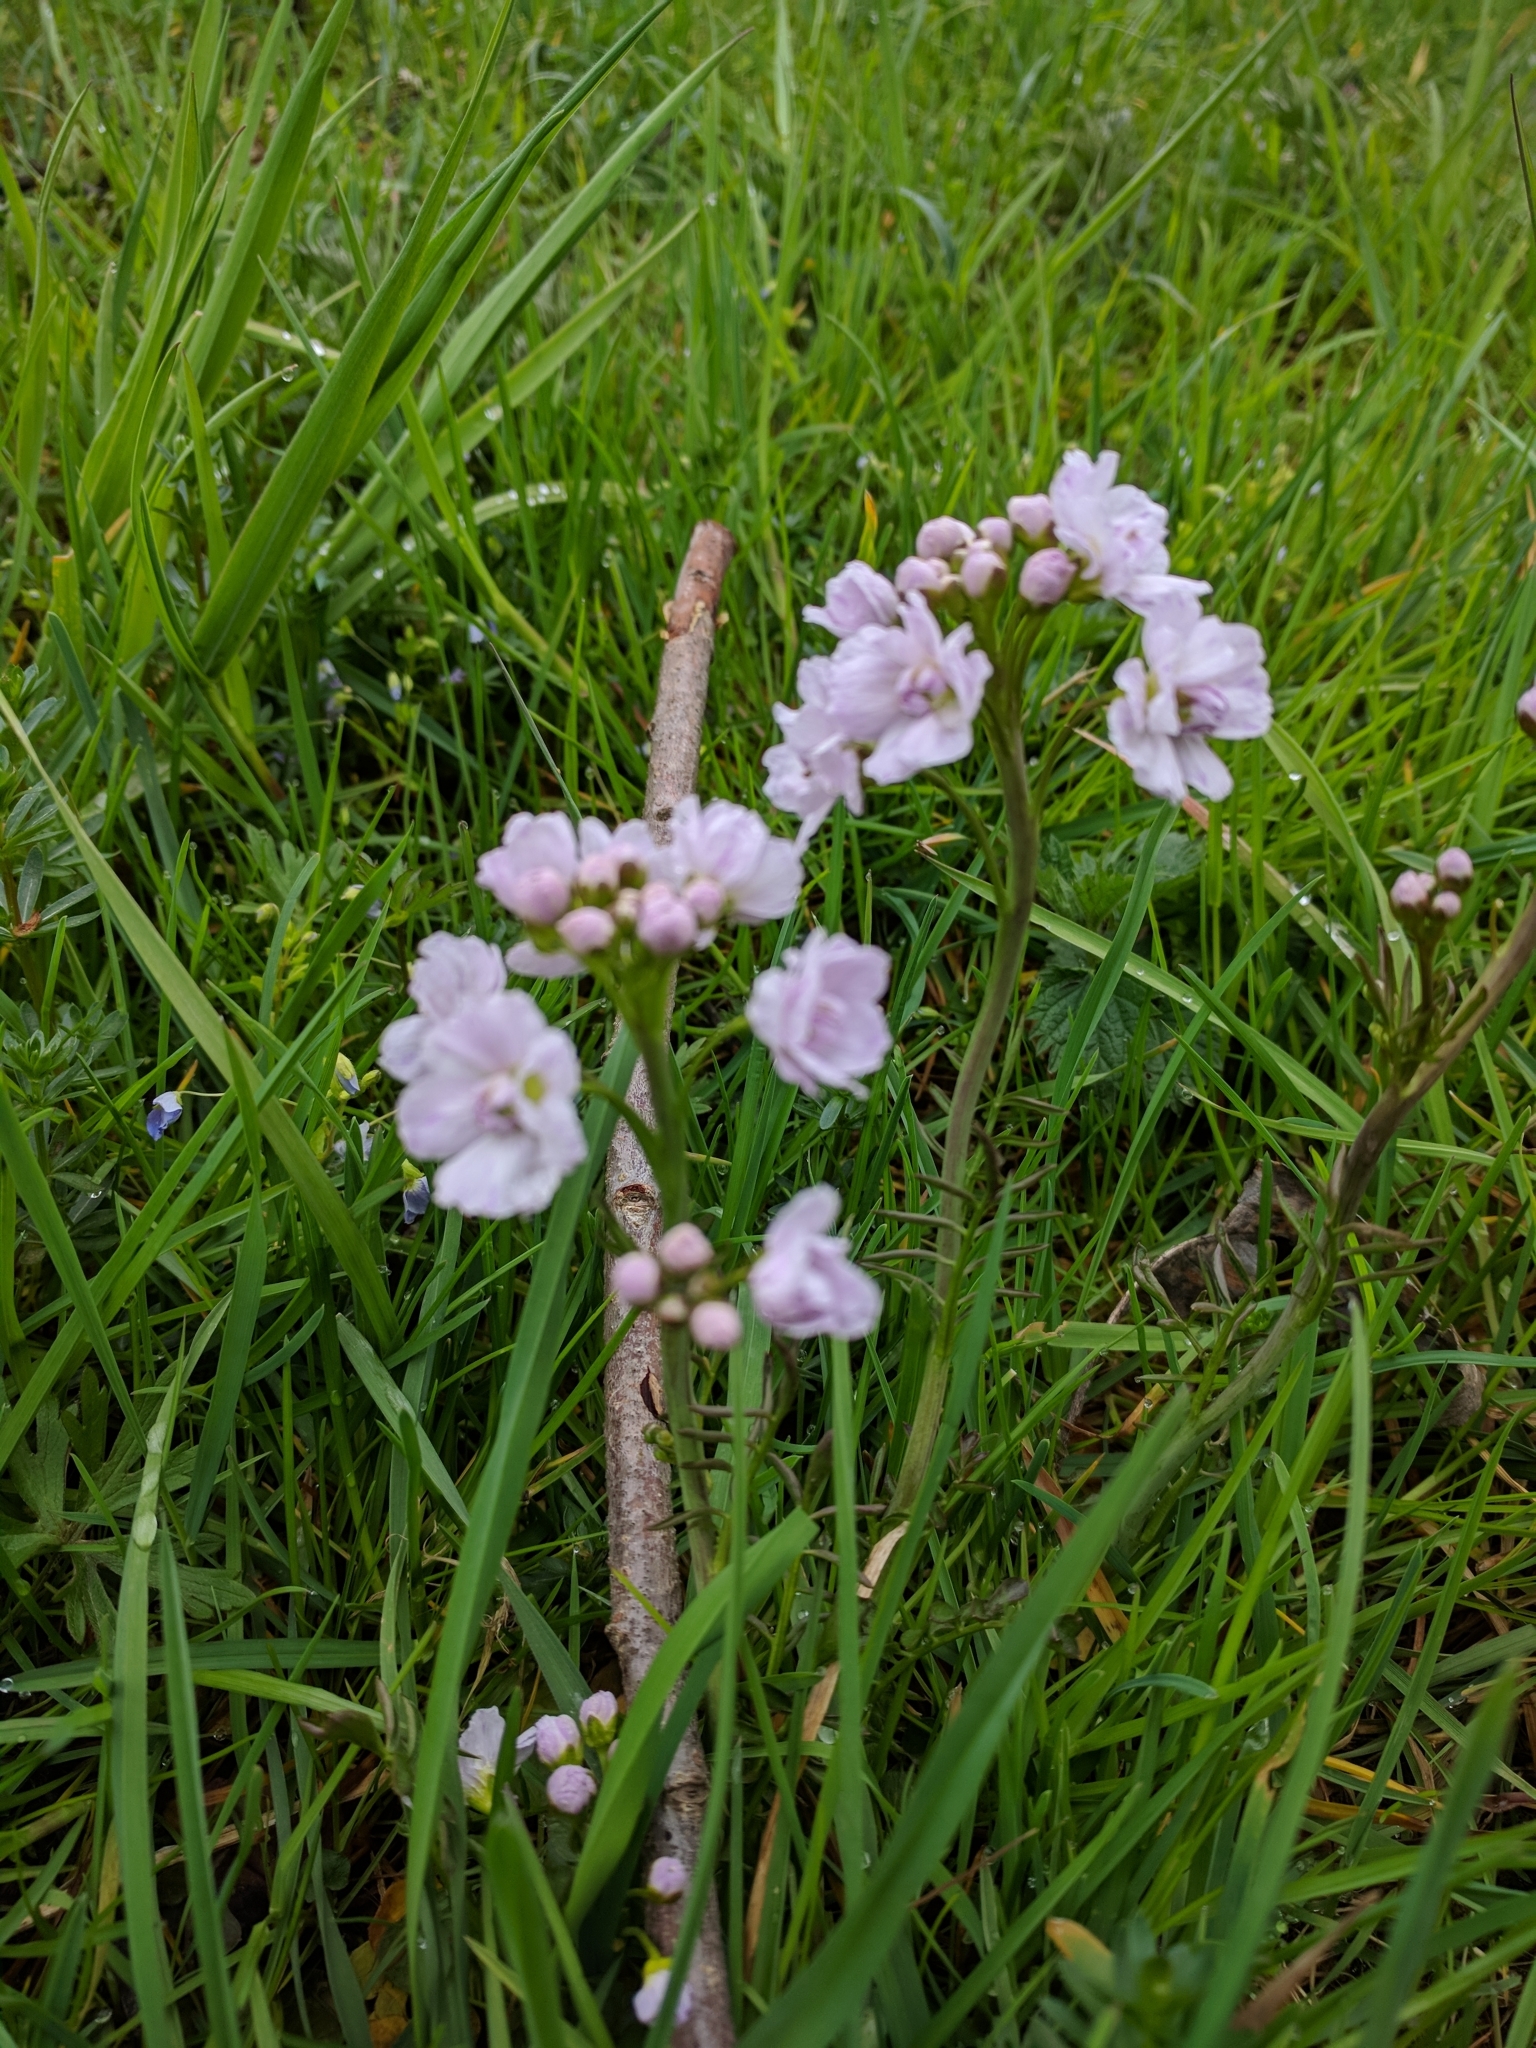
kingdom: Plantae
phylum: Tracheophyta
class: Magnoliopsida
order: Brassicales
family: Brassicaceae
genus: Cardamine
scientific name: Cardamine pratensis
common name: Cuckoo flower
